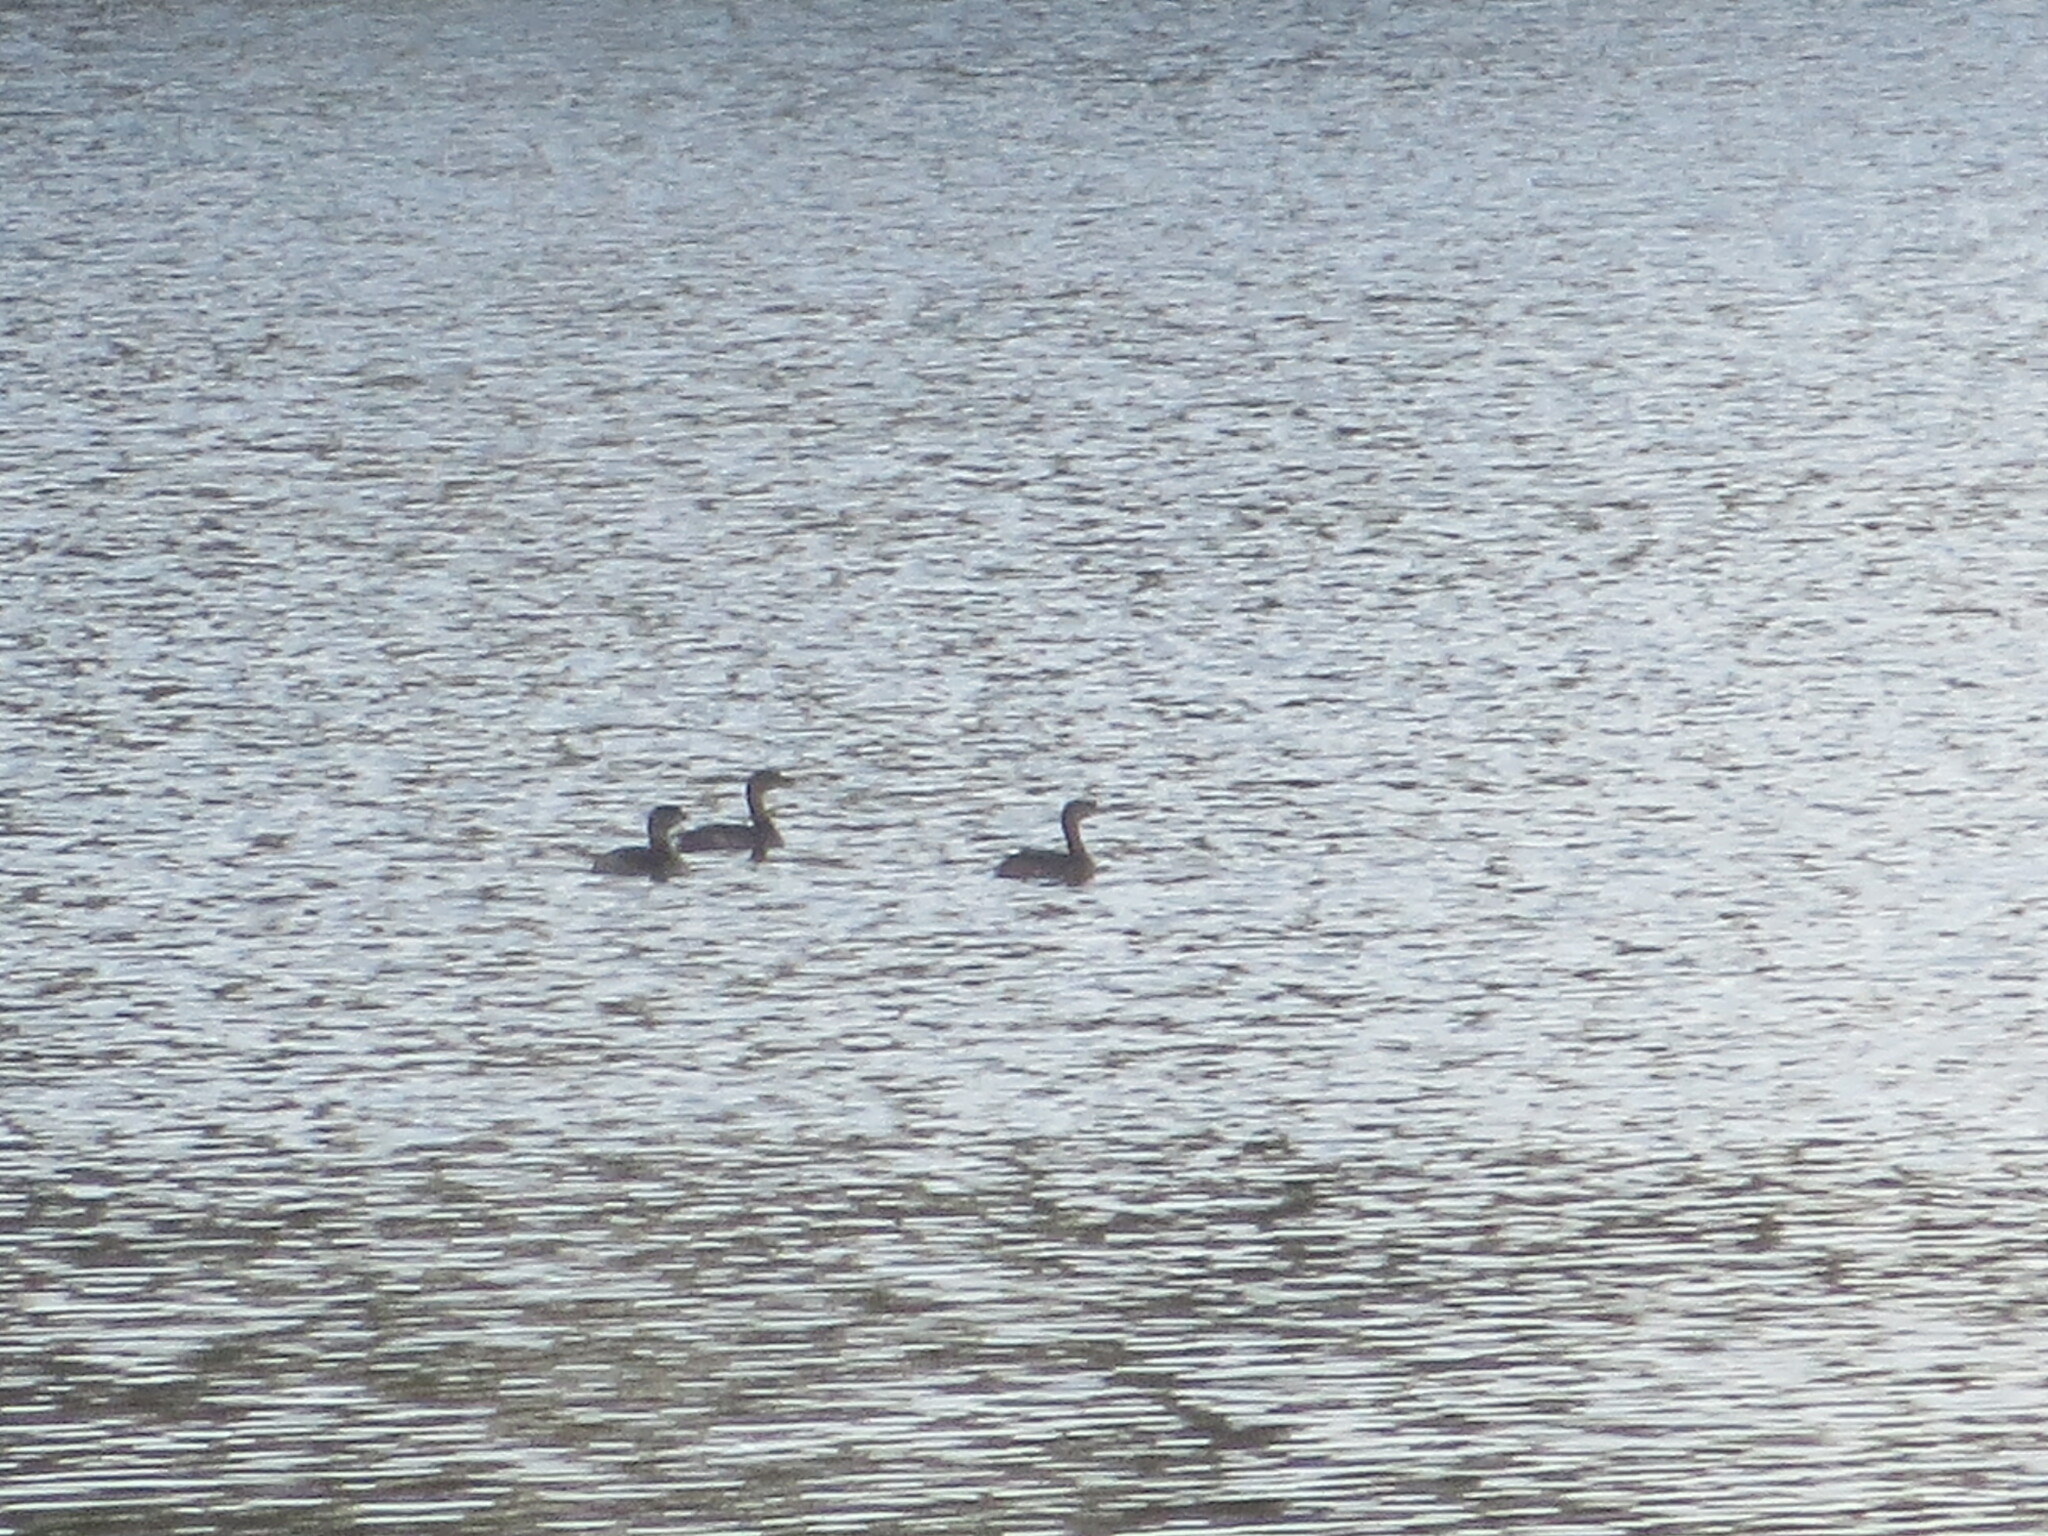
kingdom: Animalia
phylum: Chordata
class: Aves
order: Podicipediformes
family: Podicipedidae
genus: Podilymbus
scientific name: Podilymbus podiceps
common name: Pied-billed grebe
